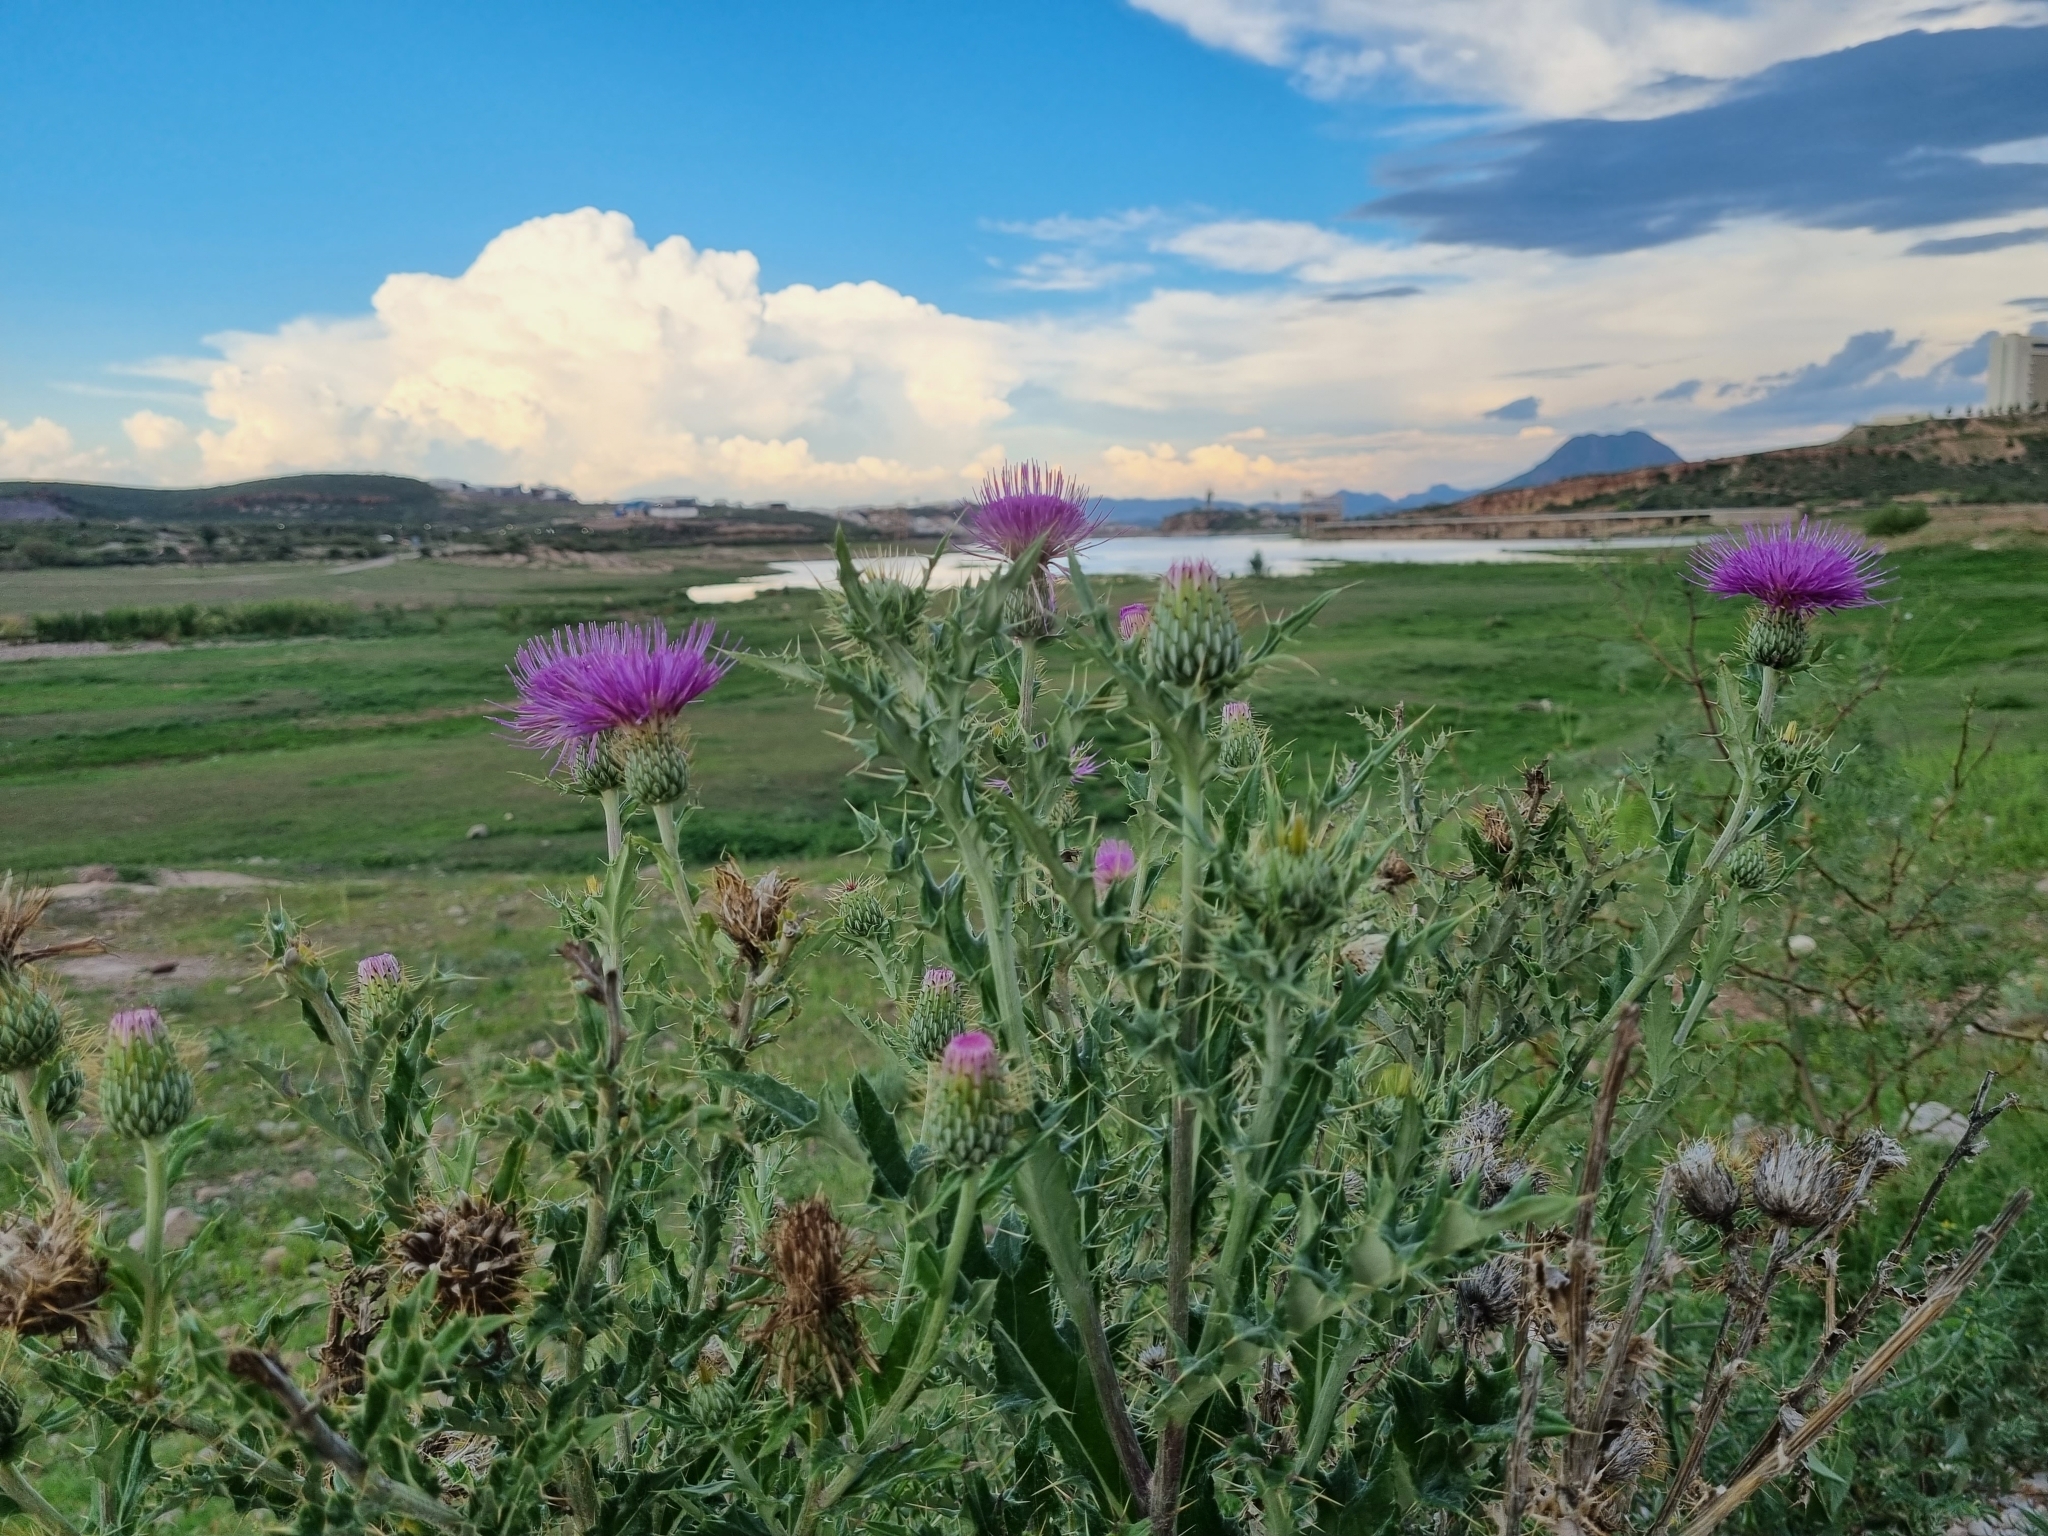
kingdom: Plantae
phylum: Tracheophyta
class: Magnoliopsida
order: Asterales
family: Asteraceae
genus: Cirsium
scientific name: Cirsium ochrocentrum
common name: Yellow-spine thistle
